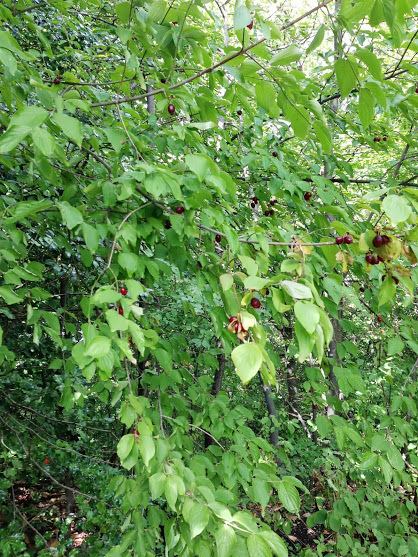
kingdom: Plantae
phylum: Tracheophyta
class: Magnoliopsida
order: Cornales
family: Cornaceae
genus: Cornus
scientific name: Cornus mas
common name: Cornelian-cherry
